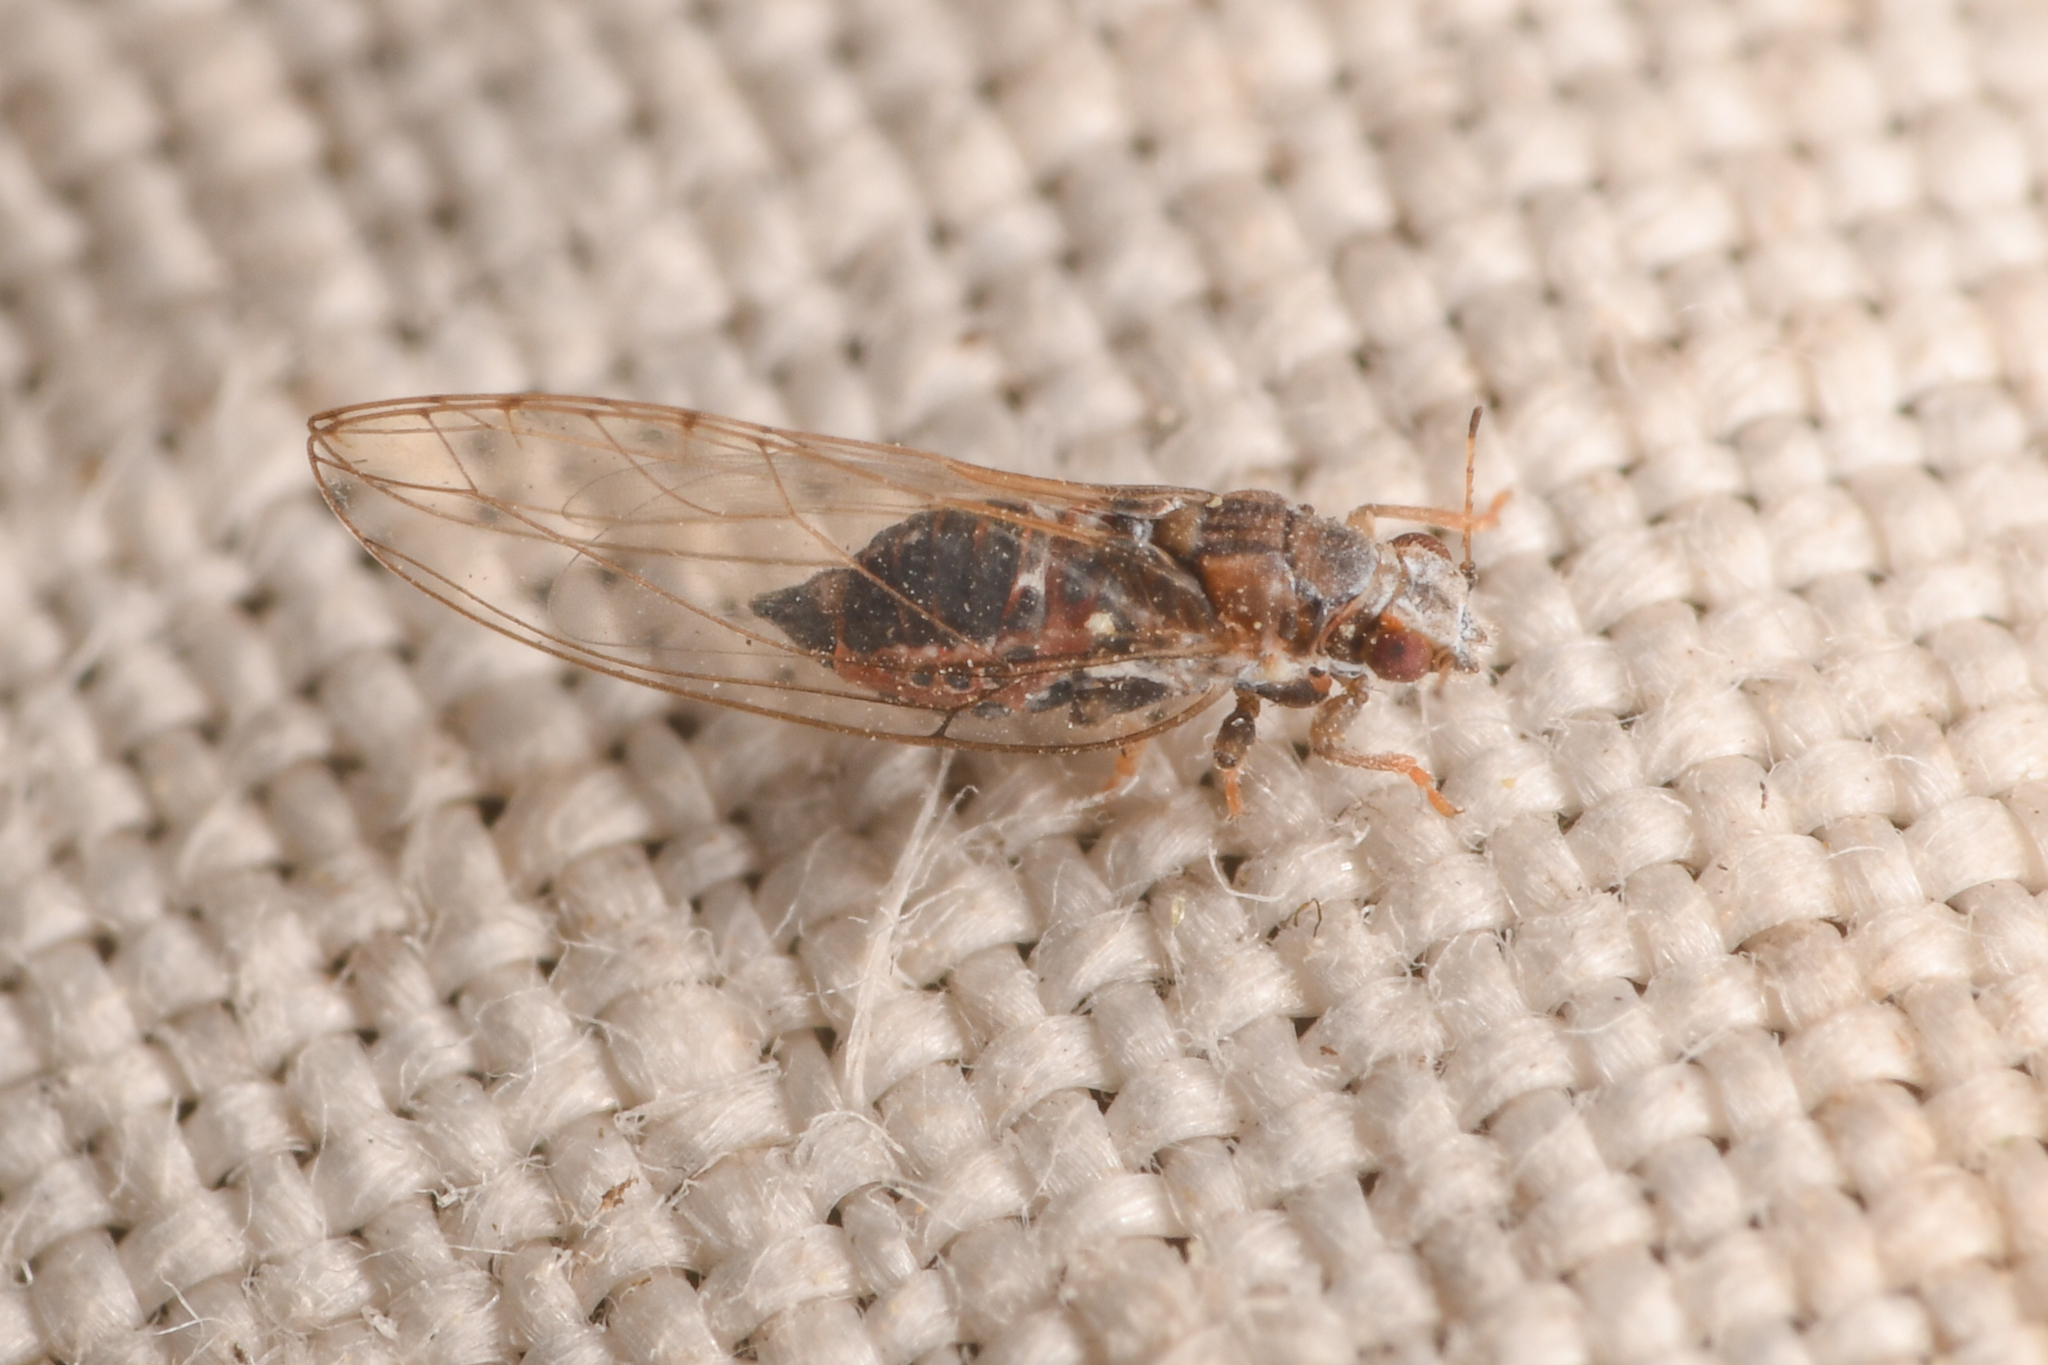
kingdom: Animalia
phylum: Arthropoda
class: Insecta
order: Hemiptera
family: Triozidae
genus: Trioza
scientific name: Trioza bakeri
